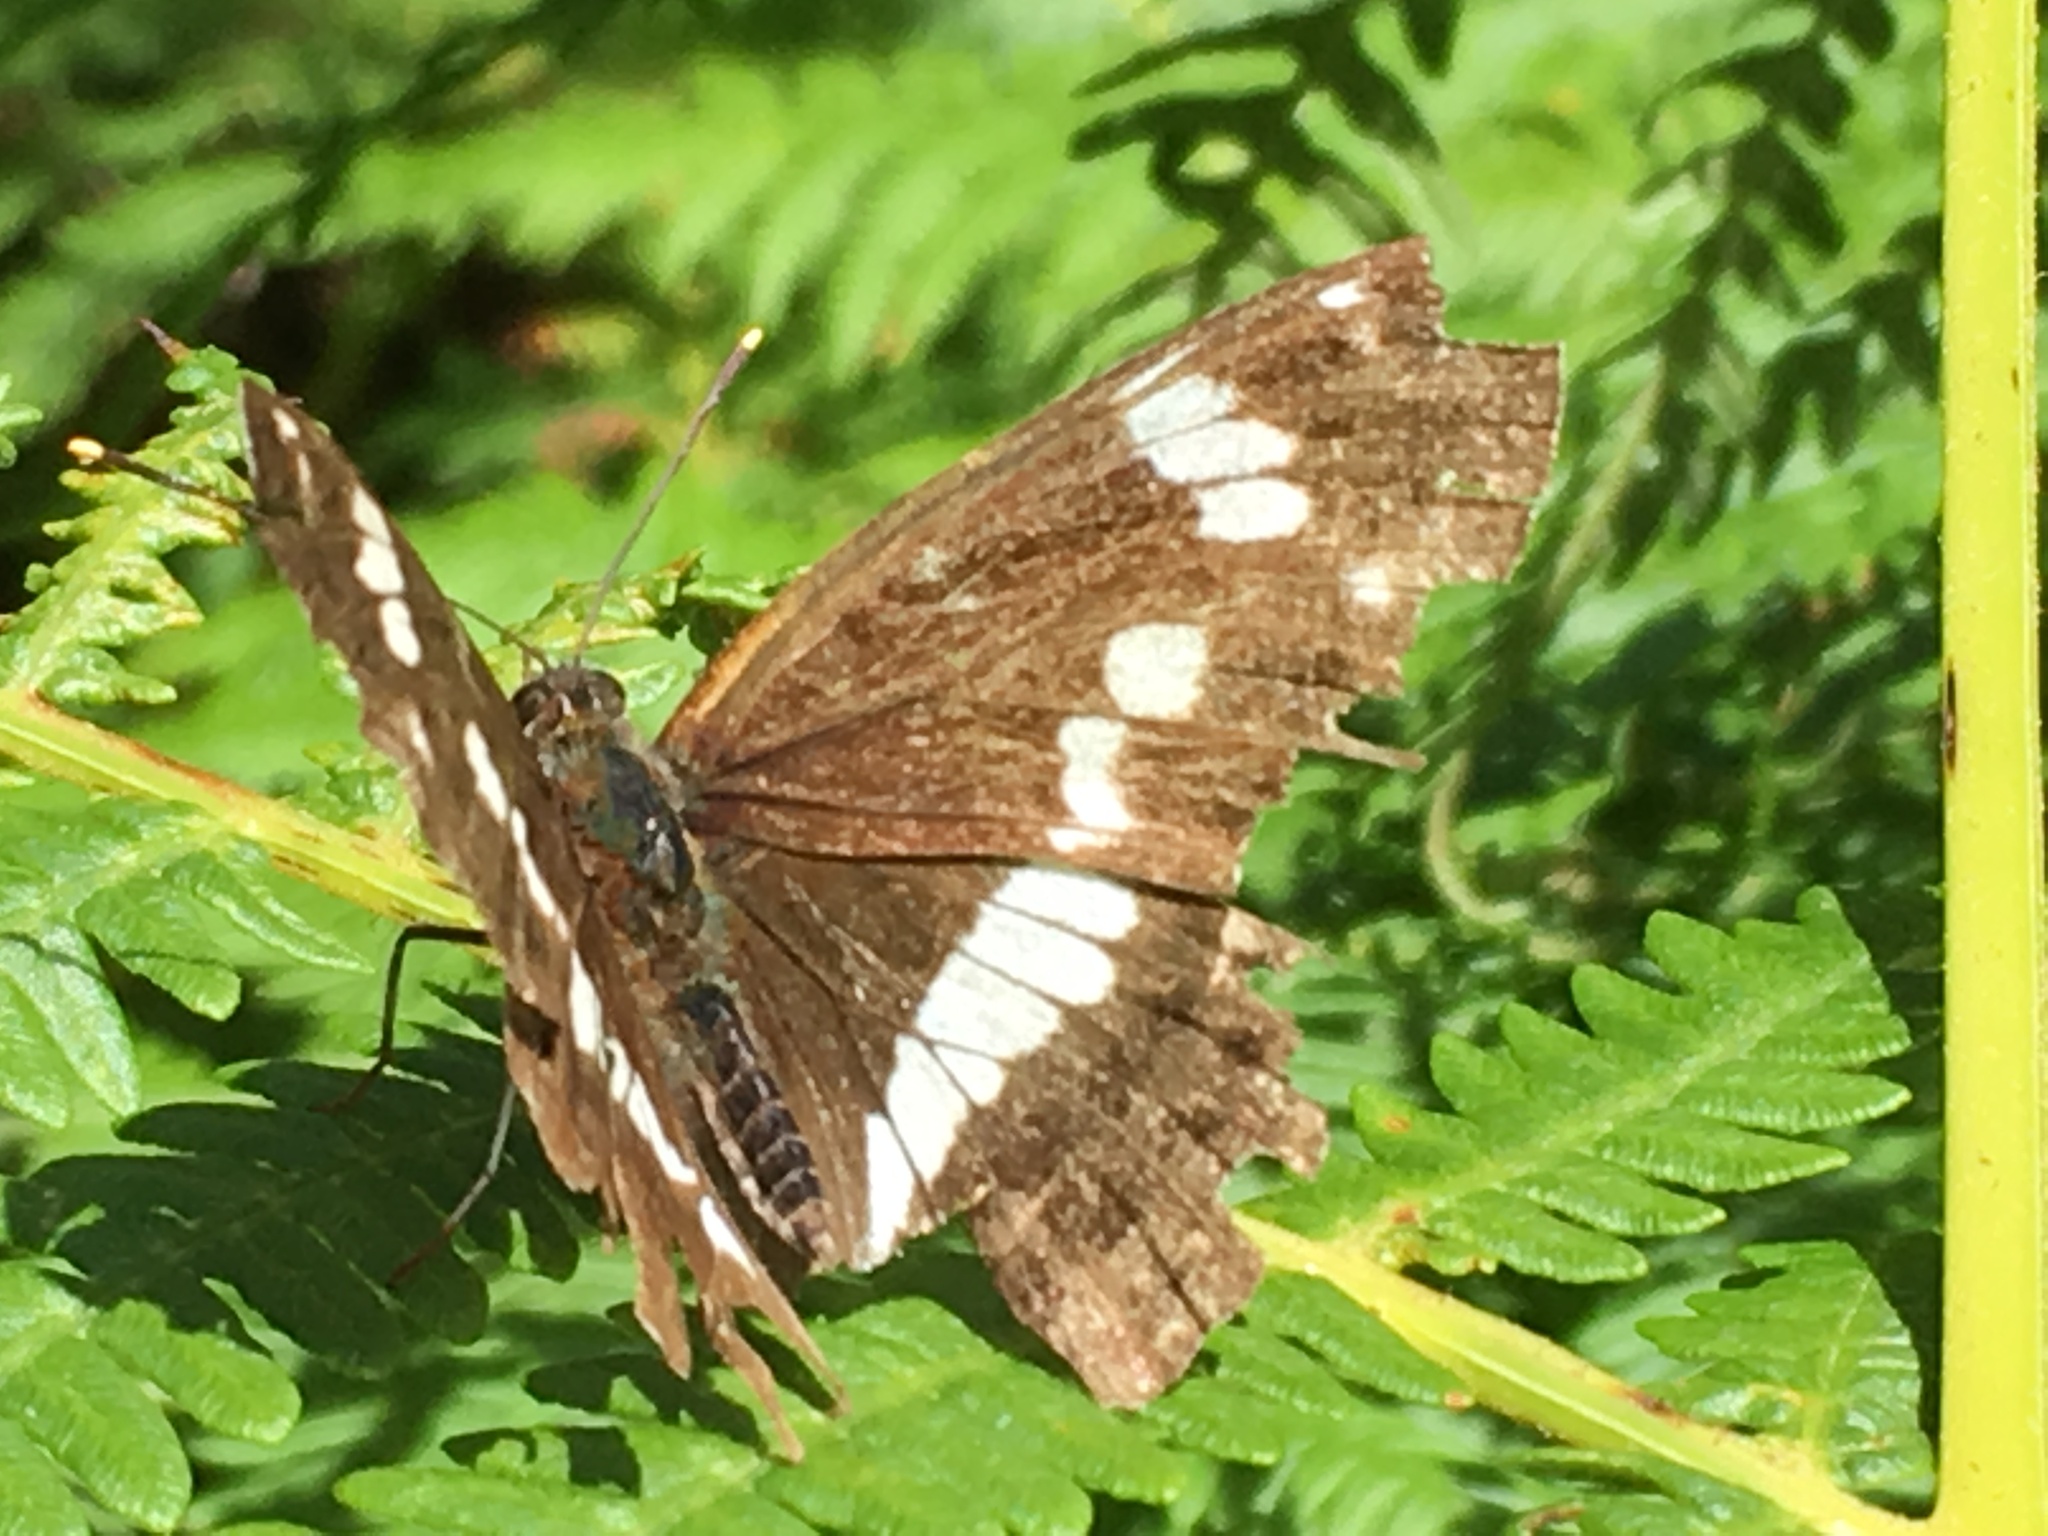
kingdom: Animalia
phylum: Arthropoda
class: Insecta
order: Lepidoptera
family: Nymphalidae
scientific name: Nymphalidae
